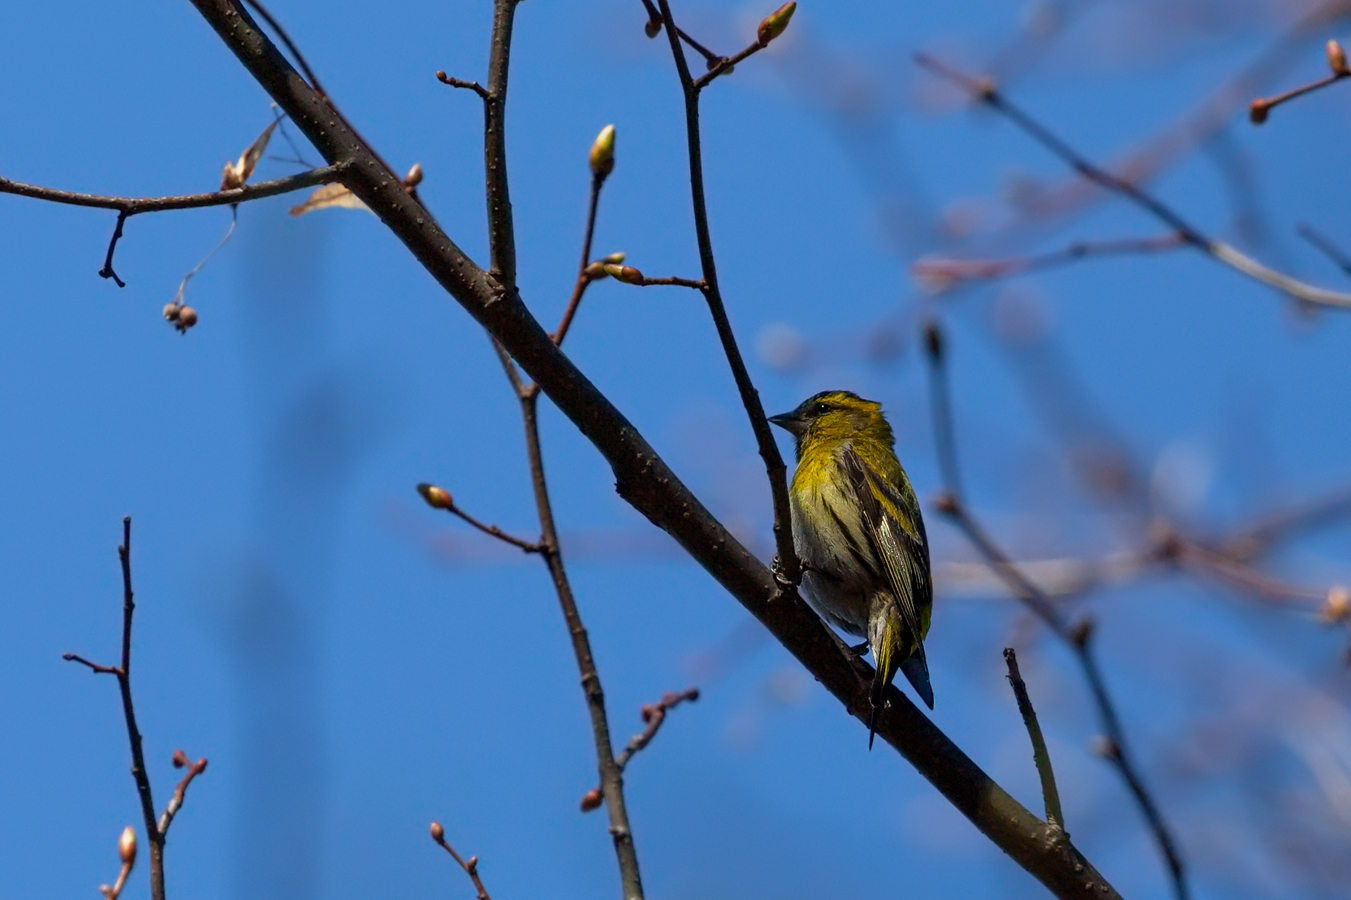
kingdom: Animalia
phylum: Chordata
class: Aves
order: Passeriformes
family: Fringillidae
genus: Spinus
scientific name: Spinus spinus
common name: Eurasian siskin
